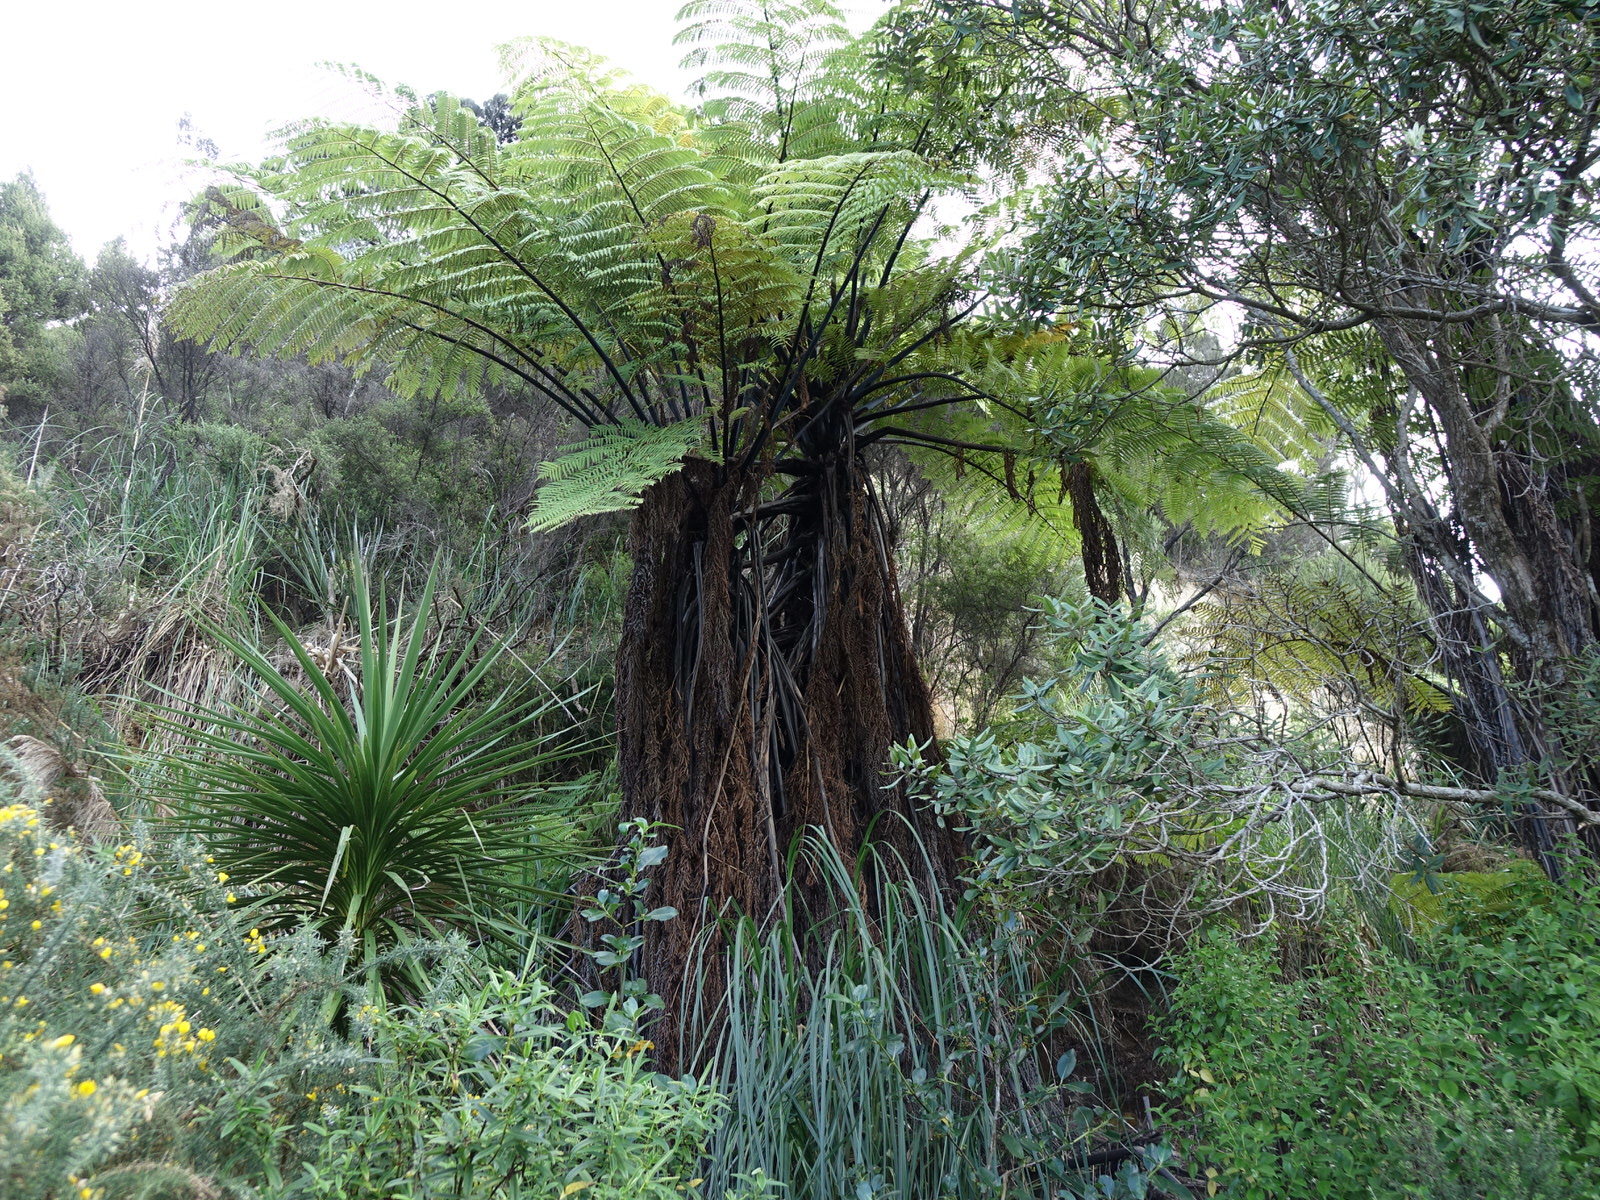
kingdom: Plantae
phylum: Tracheophyta
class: Polypodiopsida
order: Cyatheales
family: Cyatheaceae
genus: Sphaeropteris
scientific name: Sphaeropteris medullaris
